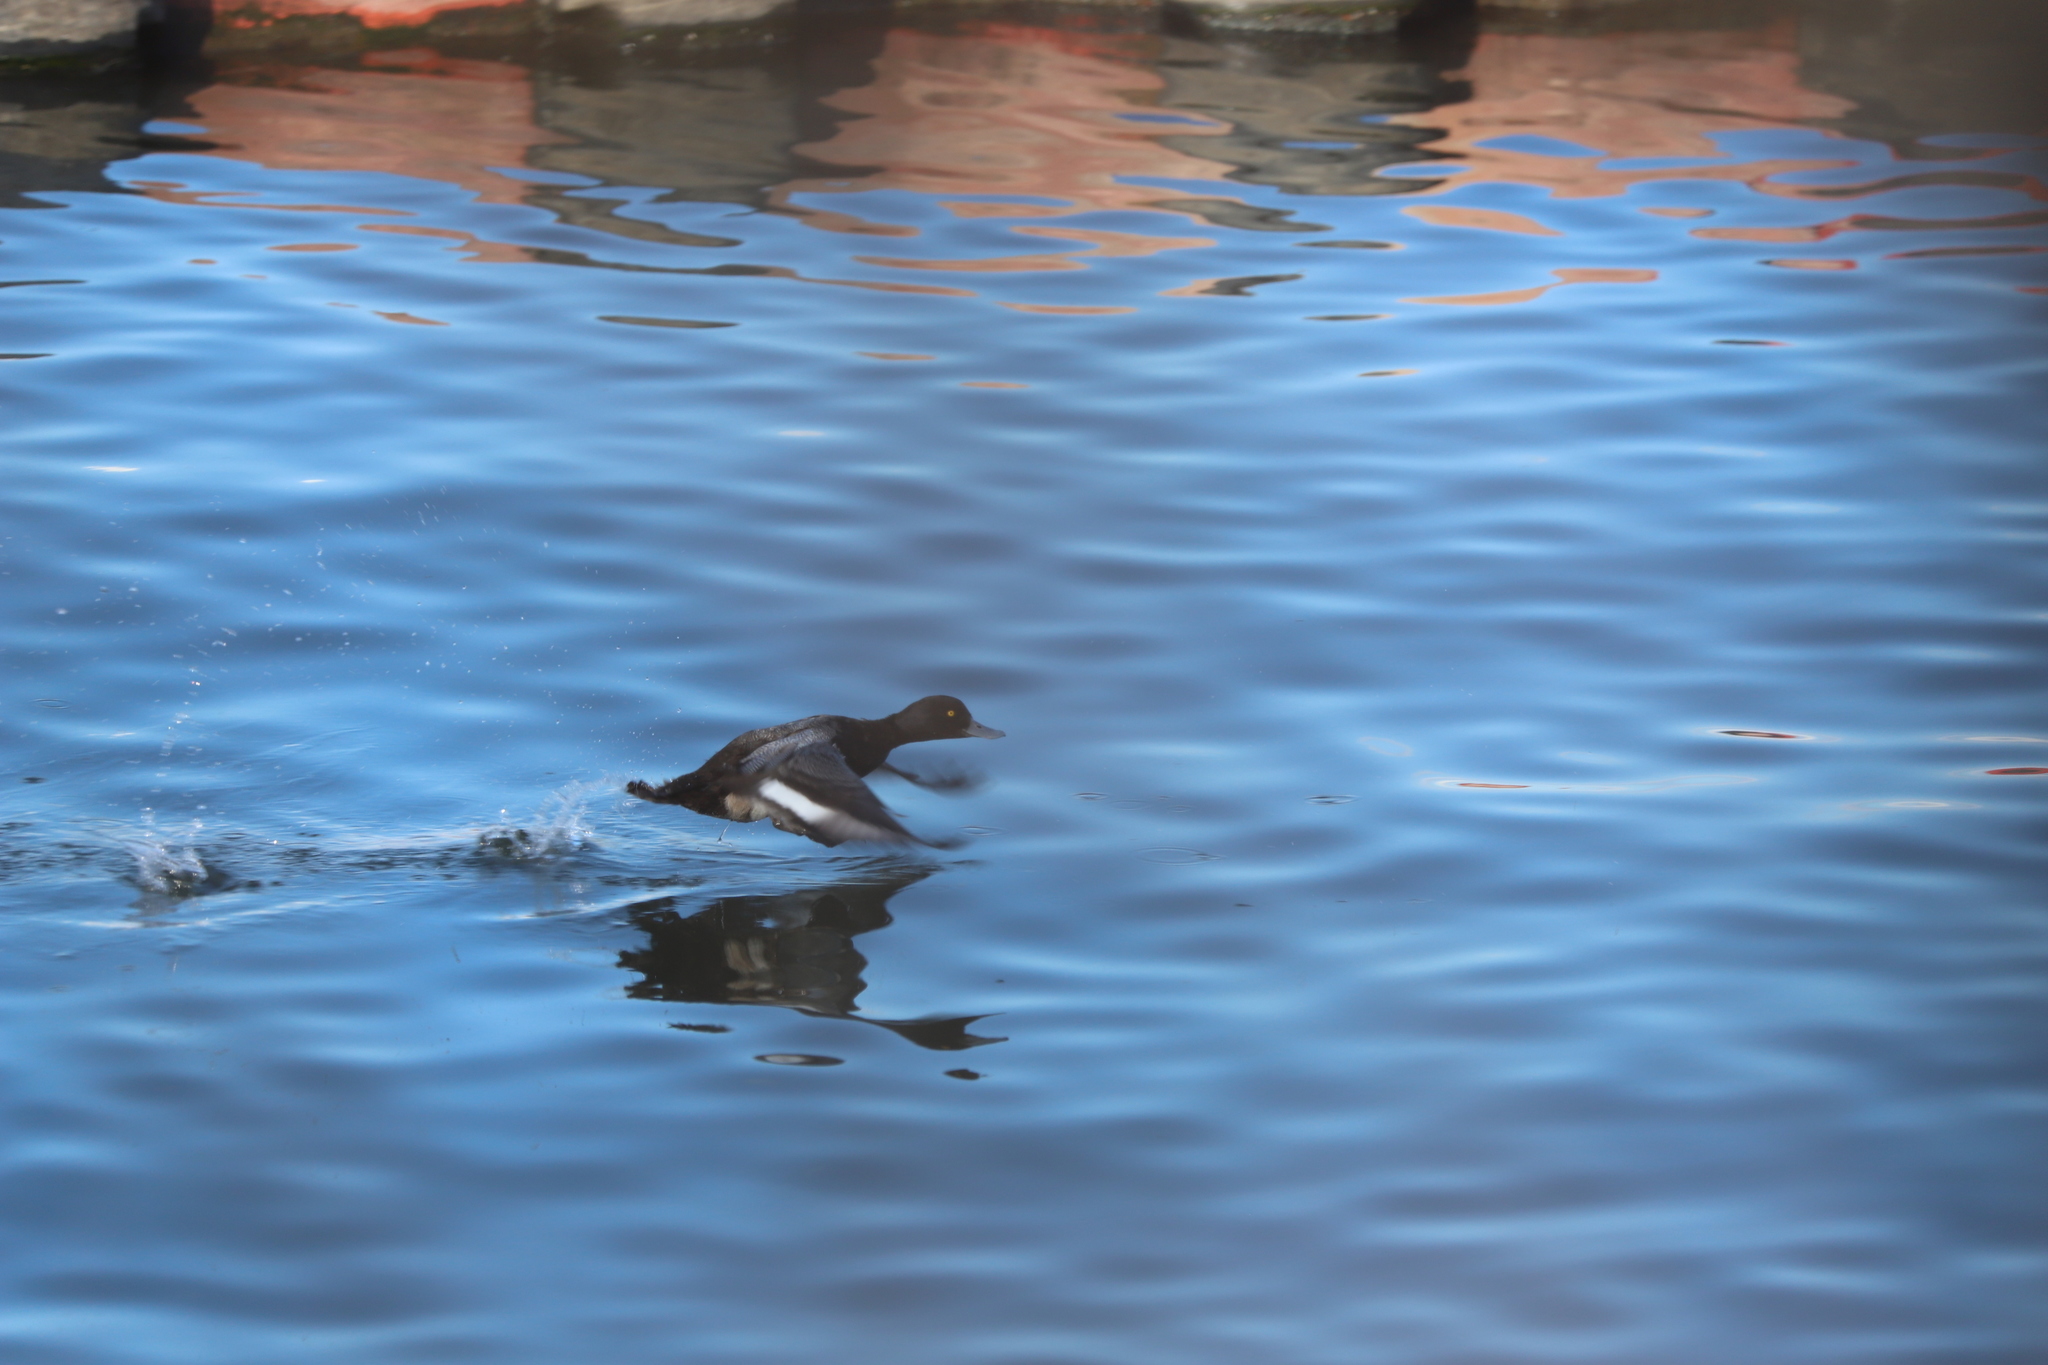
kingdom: Animalia
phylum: Chordata
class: Aves
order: Anseriformes
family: Anatidae
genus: Aythya
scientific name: Aythya affinis
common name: Lesser scaup
